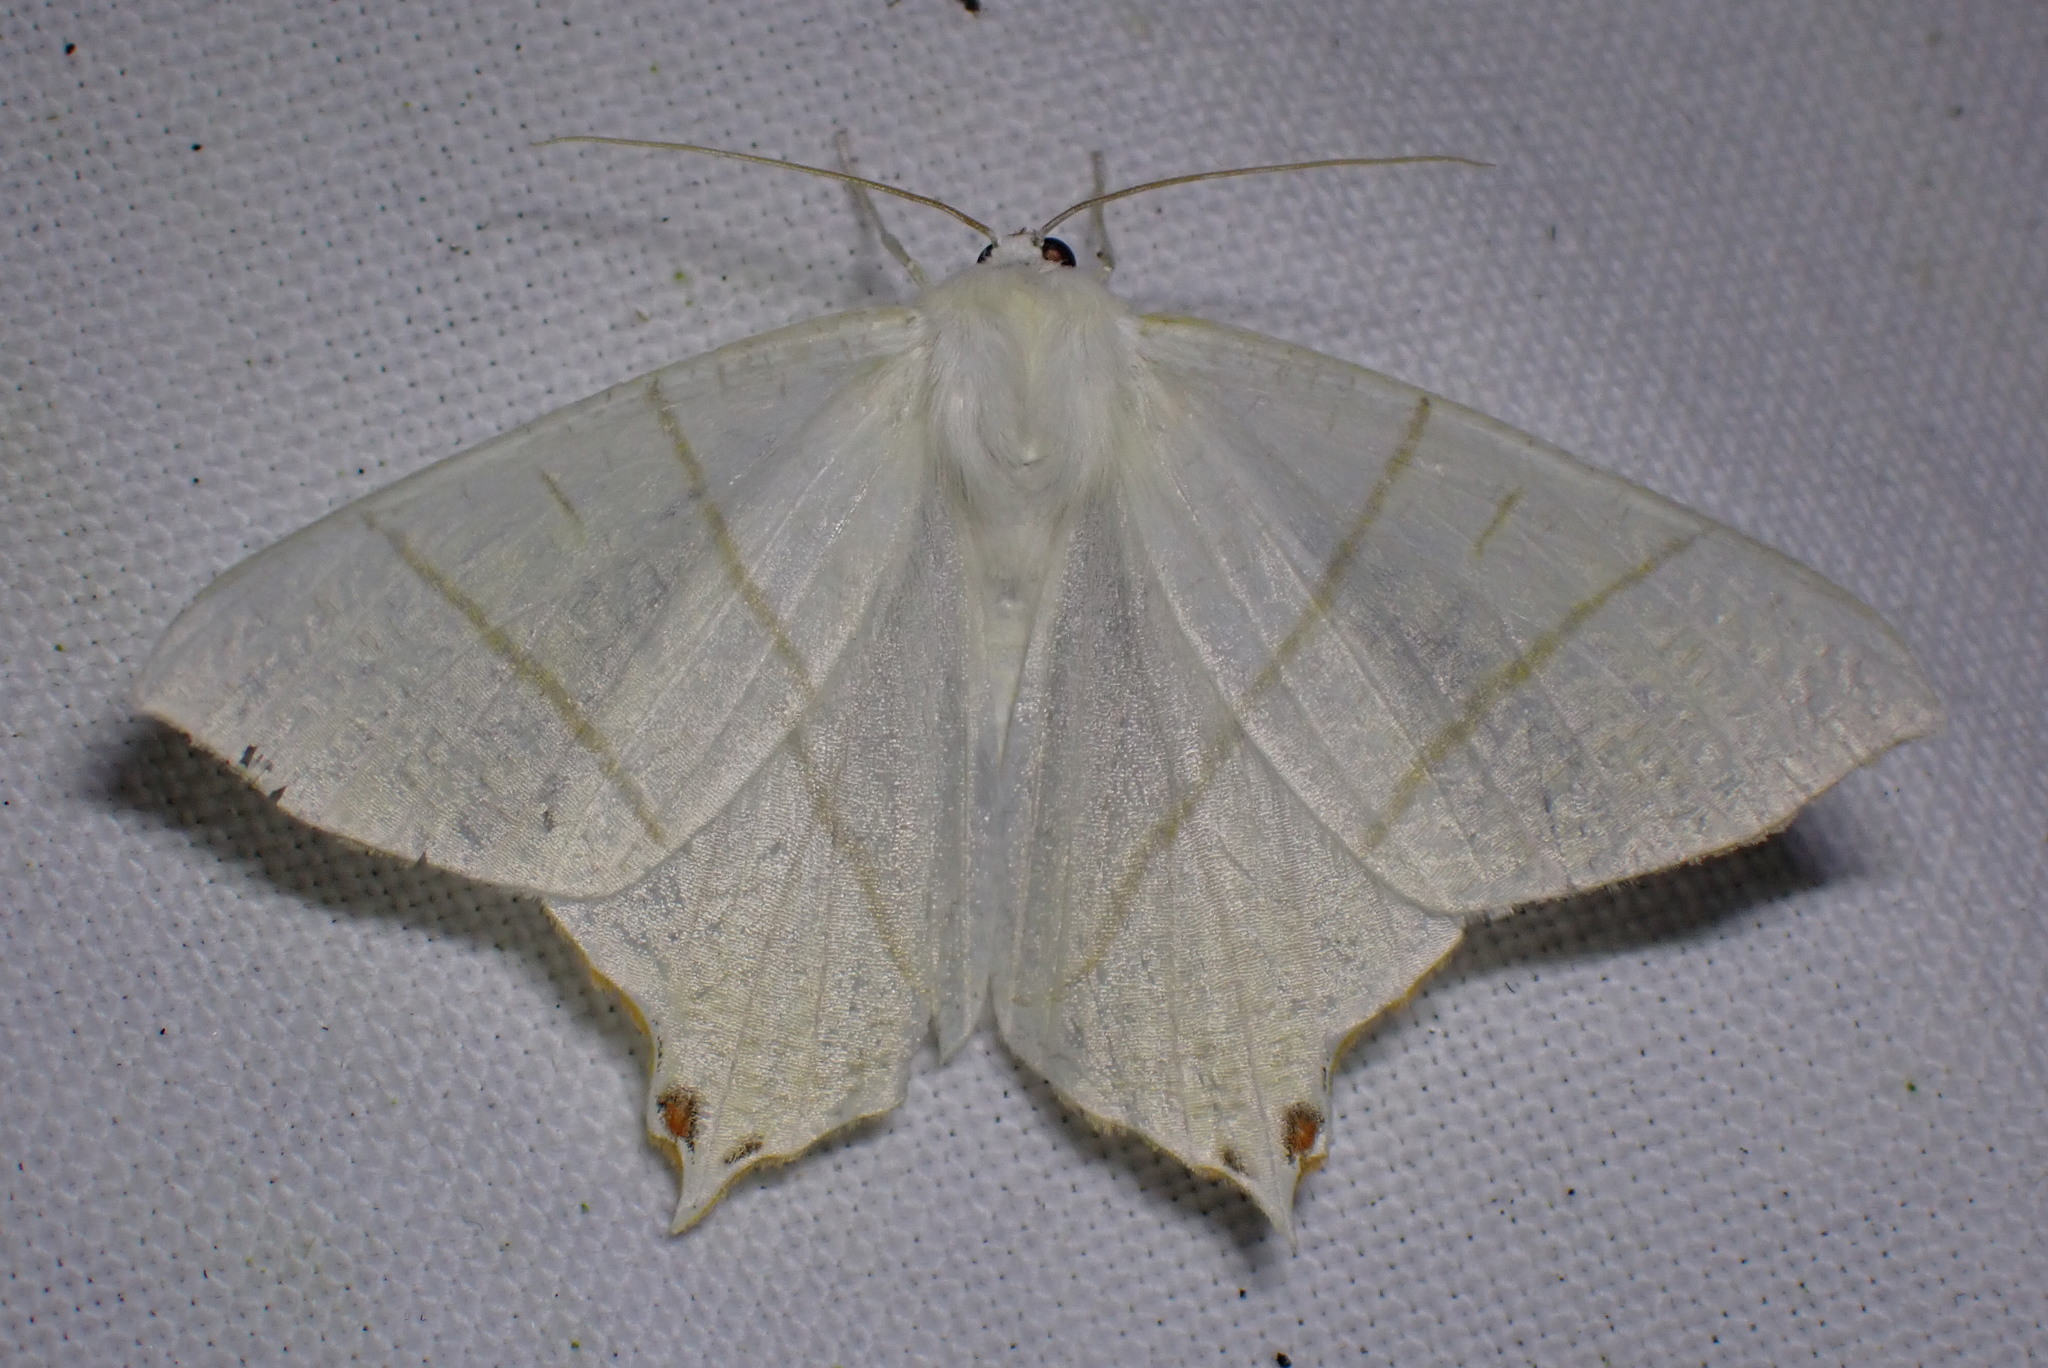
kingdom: Animalia
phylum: Arthropoda
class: Insecta
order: Lepidoptera
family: Geometridae
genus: Ourapteryx
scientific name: Ourapteryx sambucaria
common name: Swallow-tailed moth
